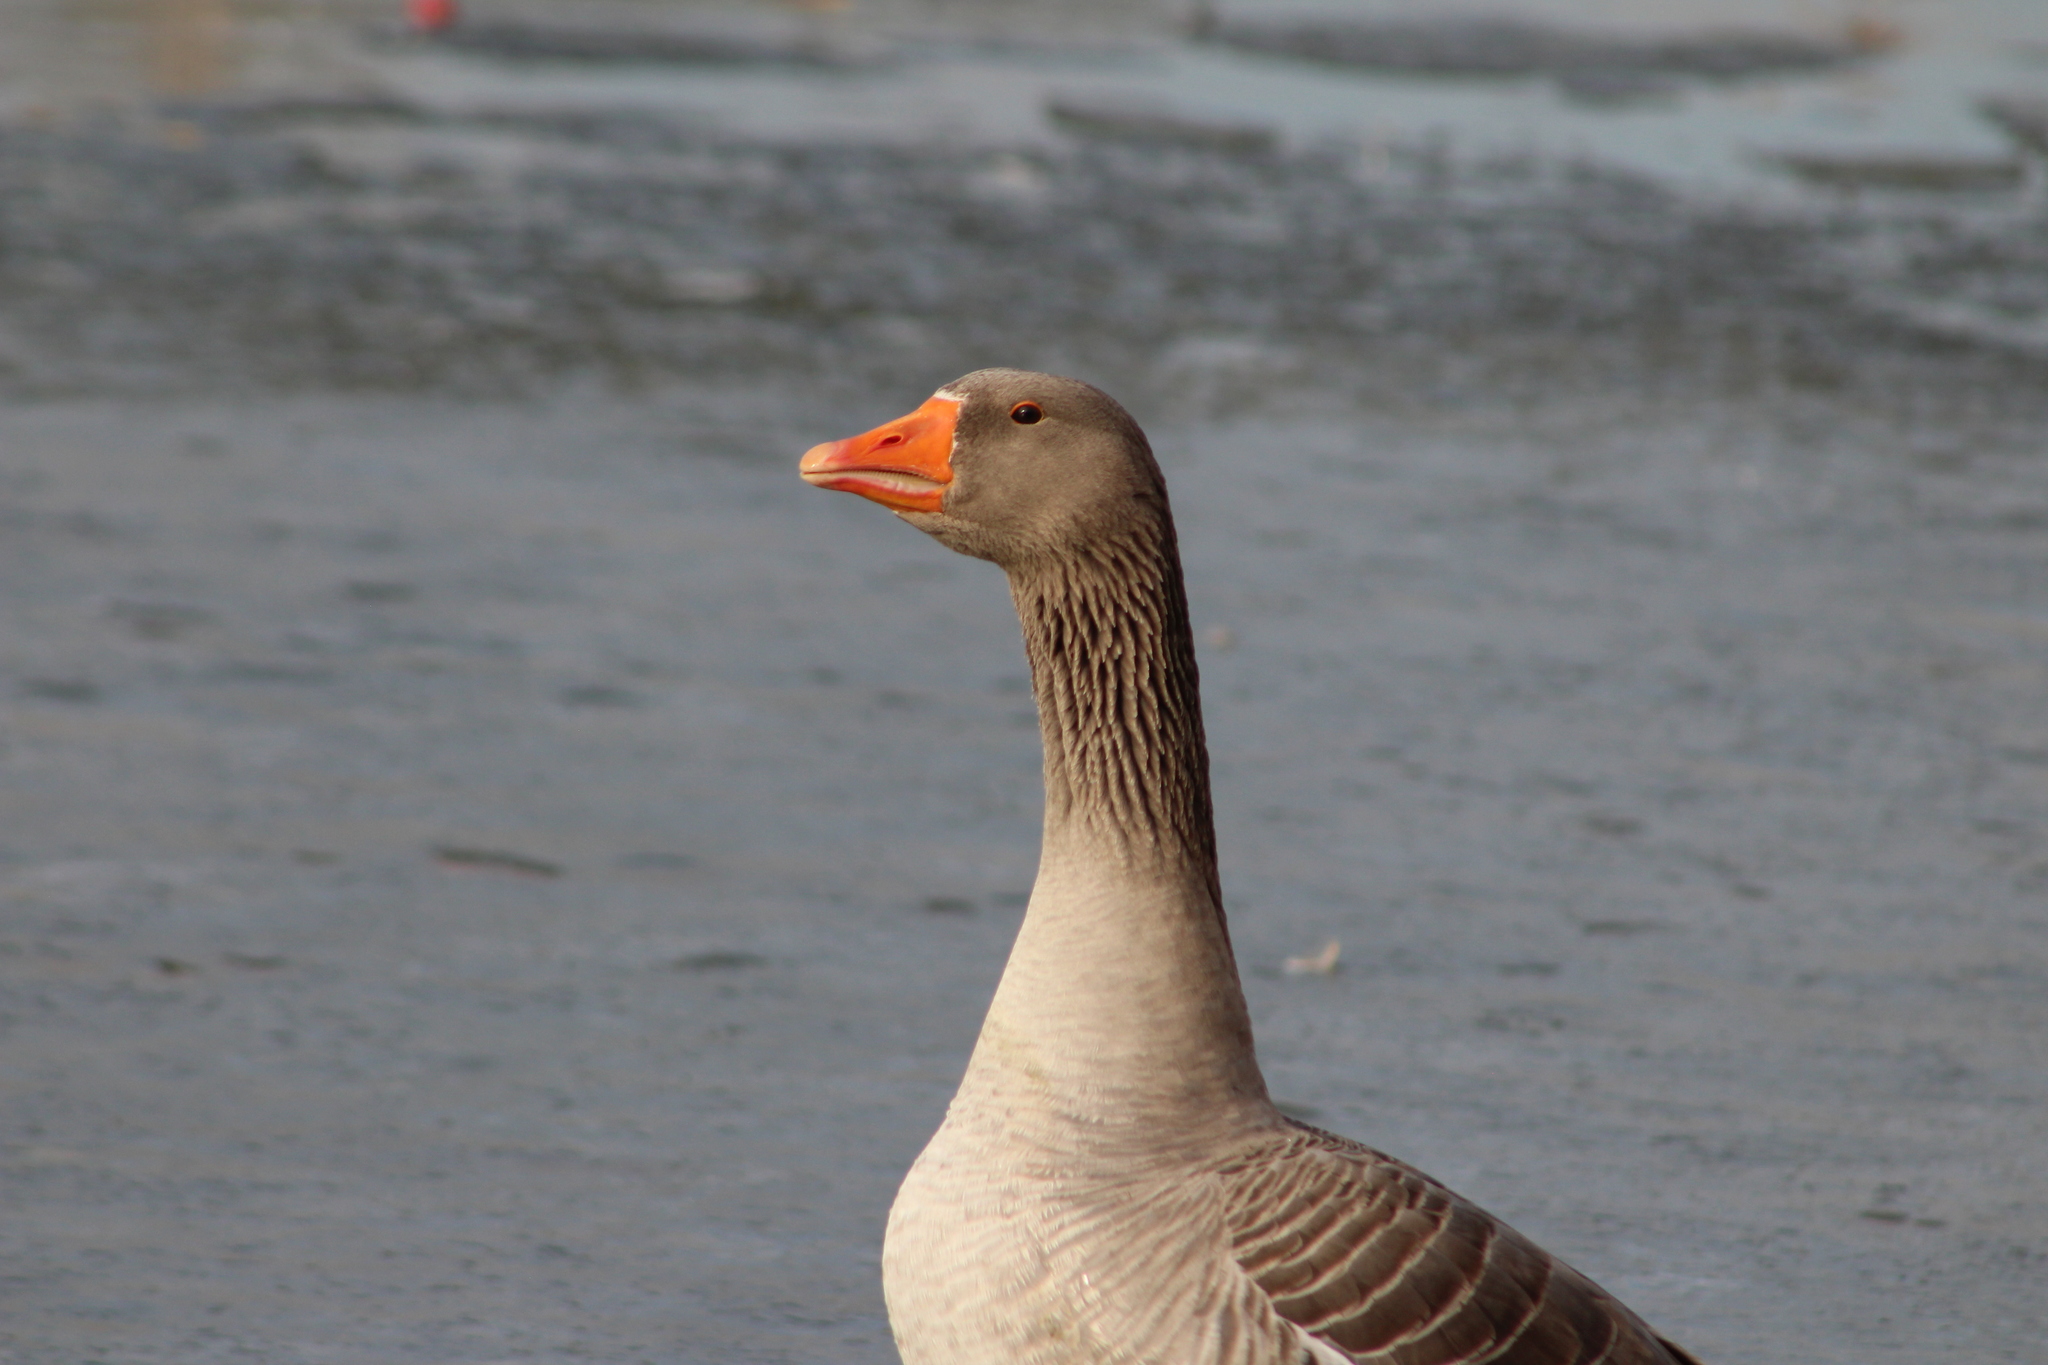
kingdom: Animalia
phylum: Chordata
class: Aves
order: Anseriformes
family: Anatidae
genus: Anser
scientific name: Anser anser
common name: Greylag goose
